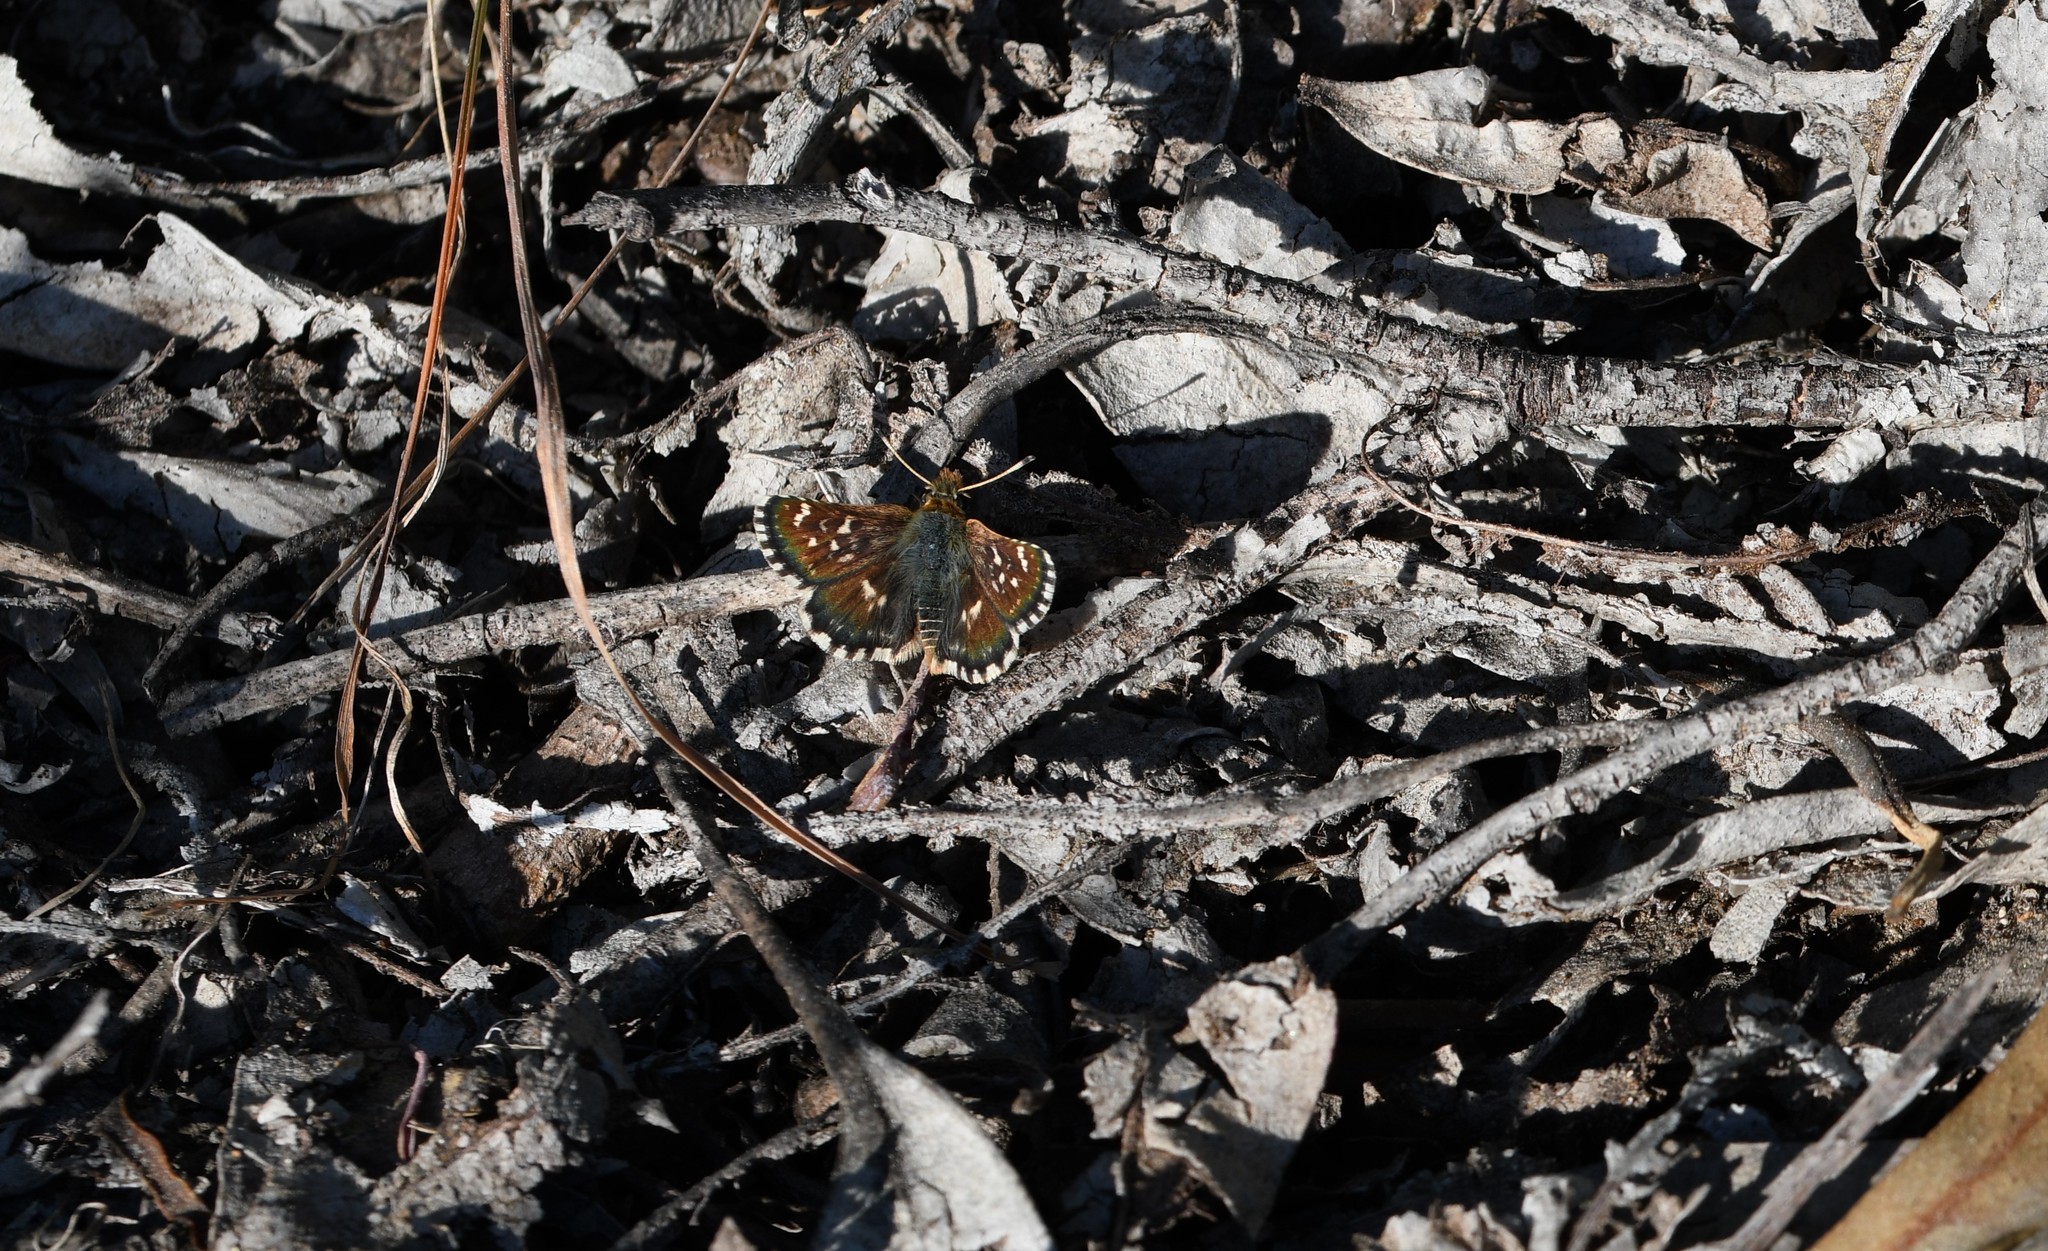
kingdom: Animalia
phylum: Arthropoda
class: Insecta
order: Lepidoptera
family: Hesperiidae
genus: Spialia
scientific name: Spialia sertorius
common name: Red underwing skipper
